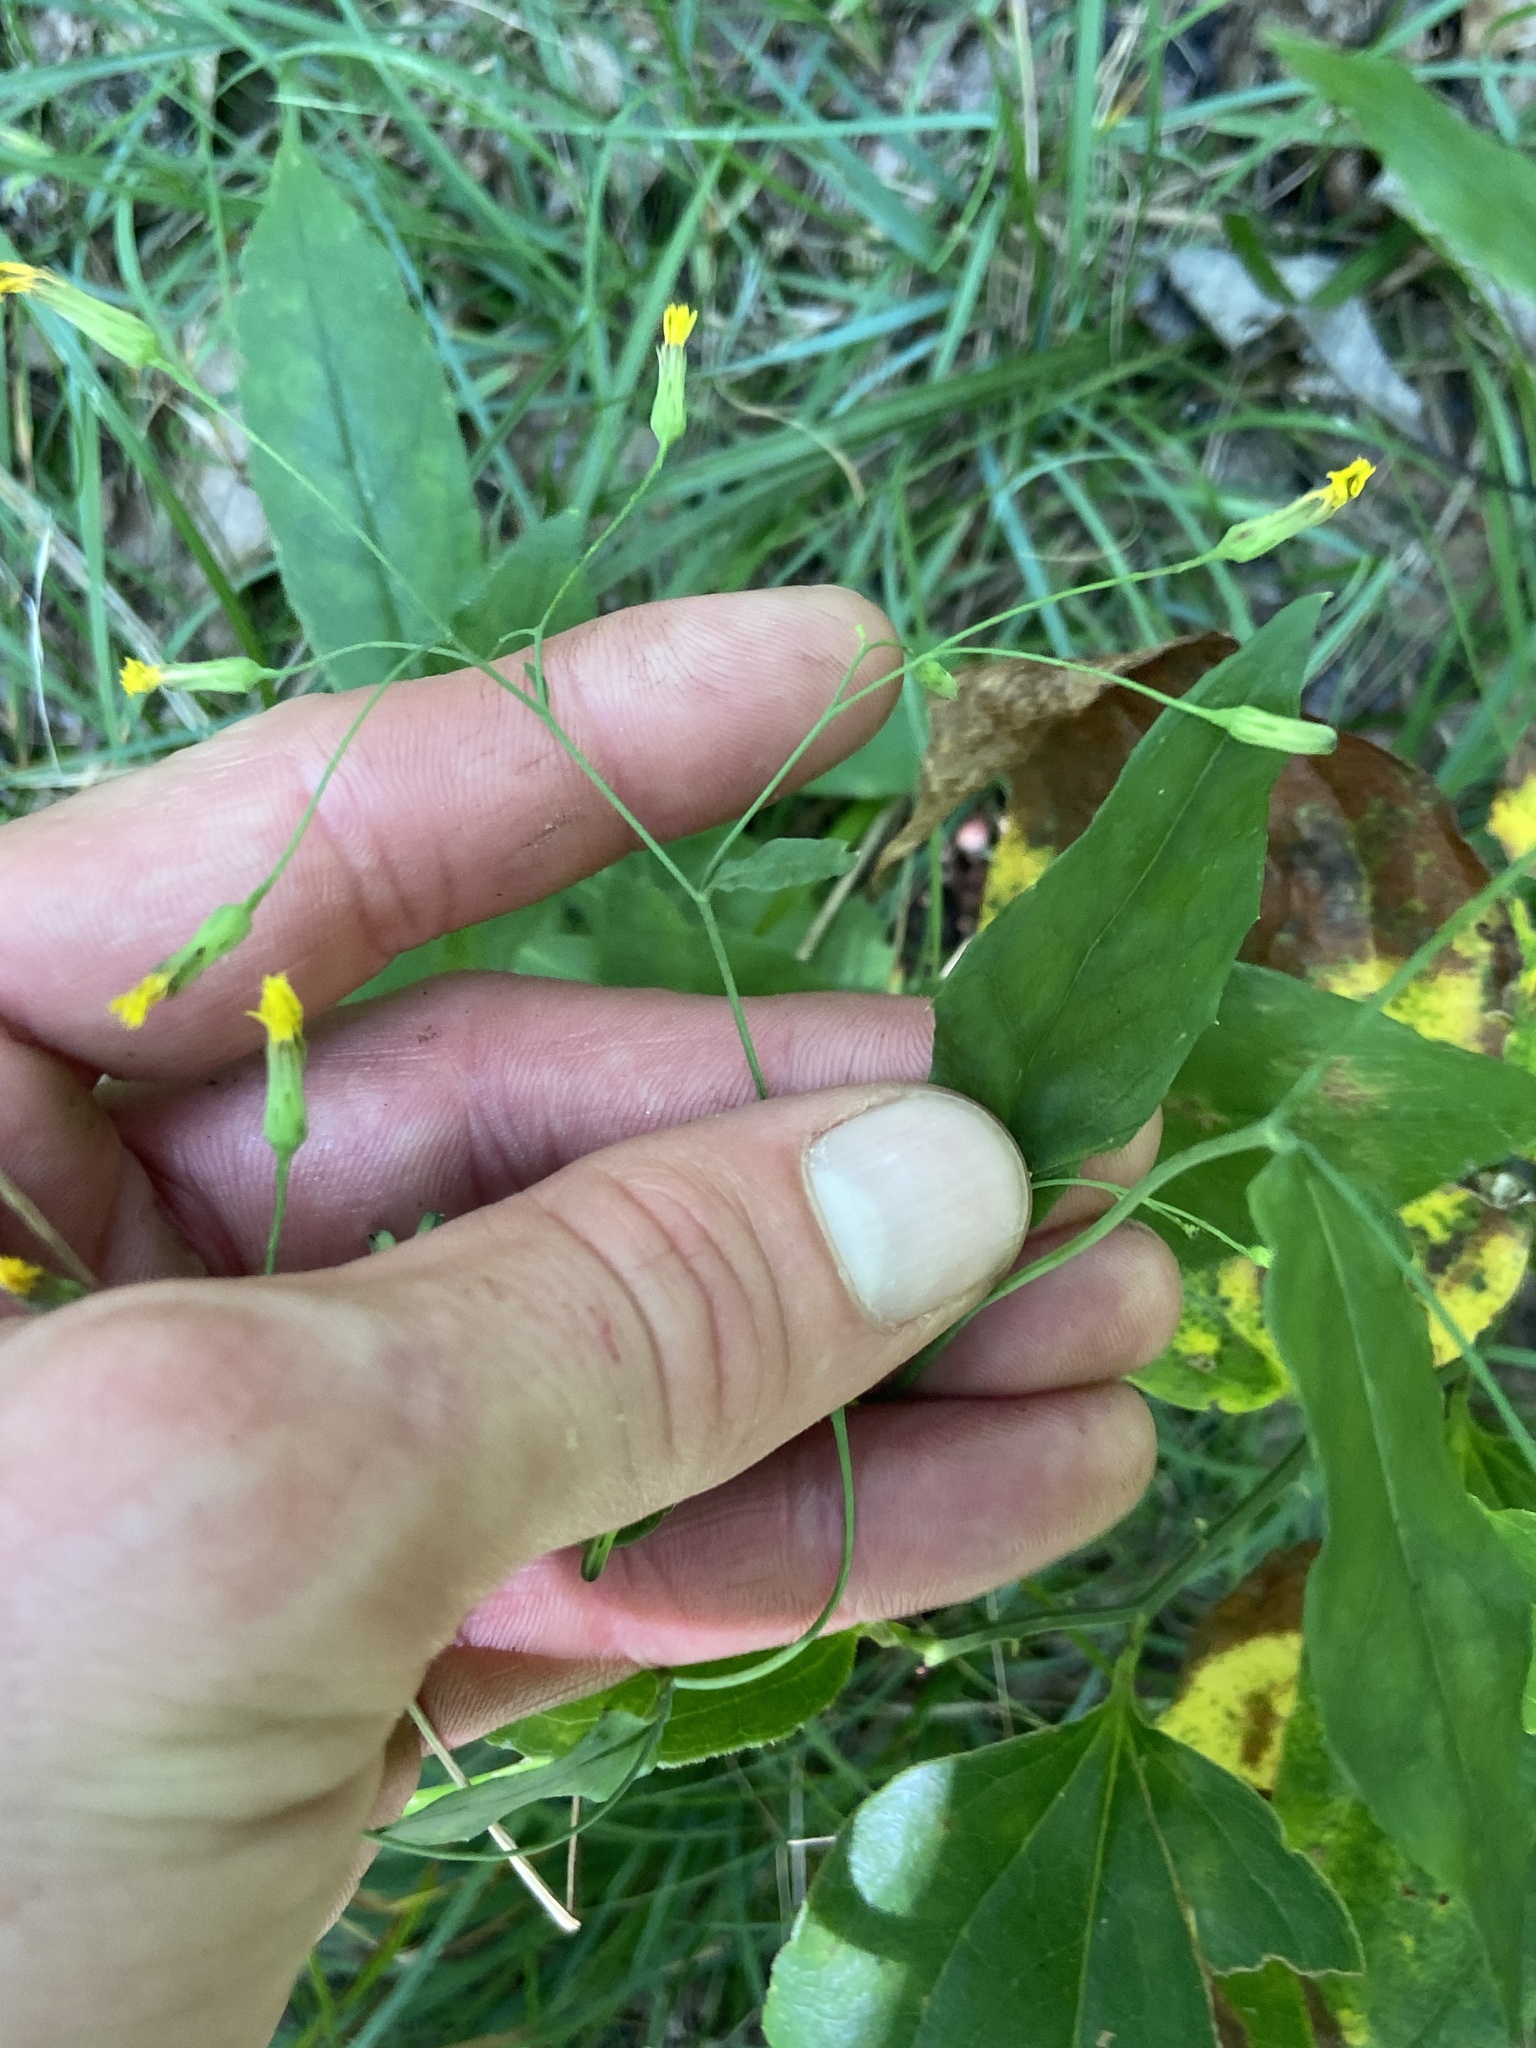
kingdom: Plantae
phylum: Tracheophyta
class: Magnoliopsida
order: Asterales
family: Asteraceae
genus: Hieracium
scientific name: Hieracium paniculatum
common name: Allegheny hawkweed
